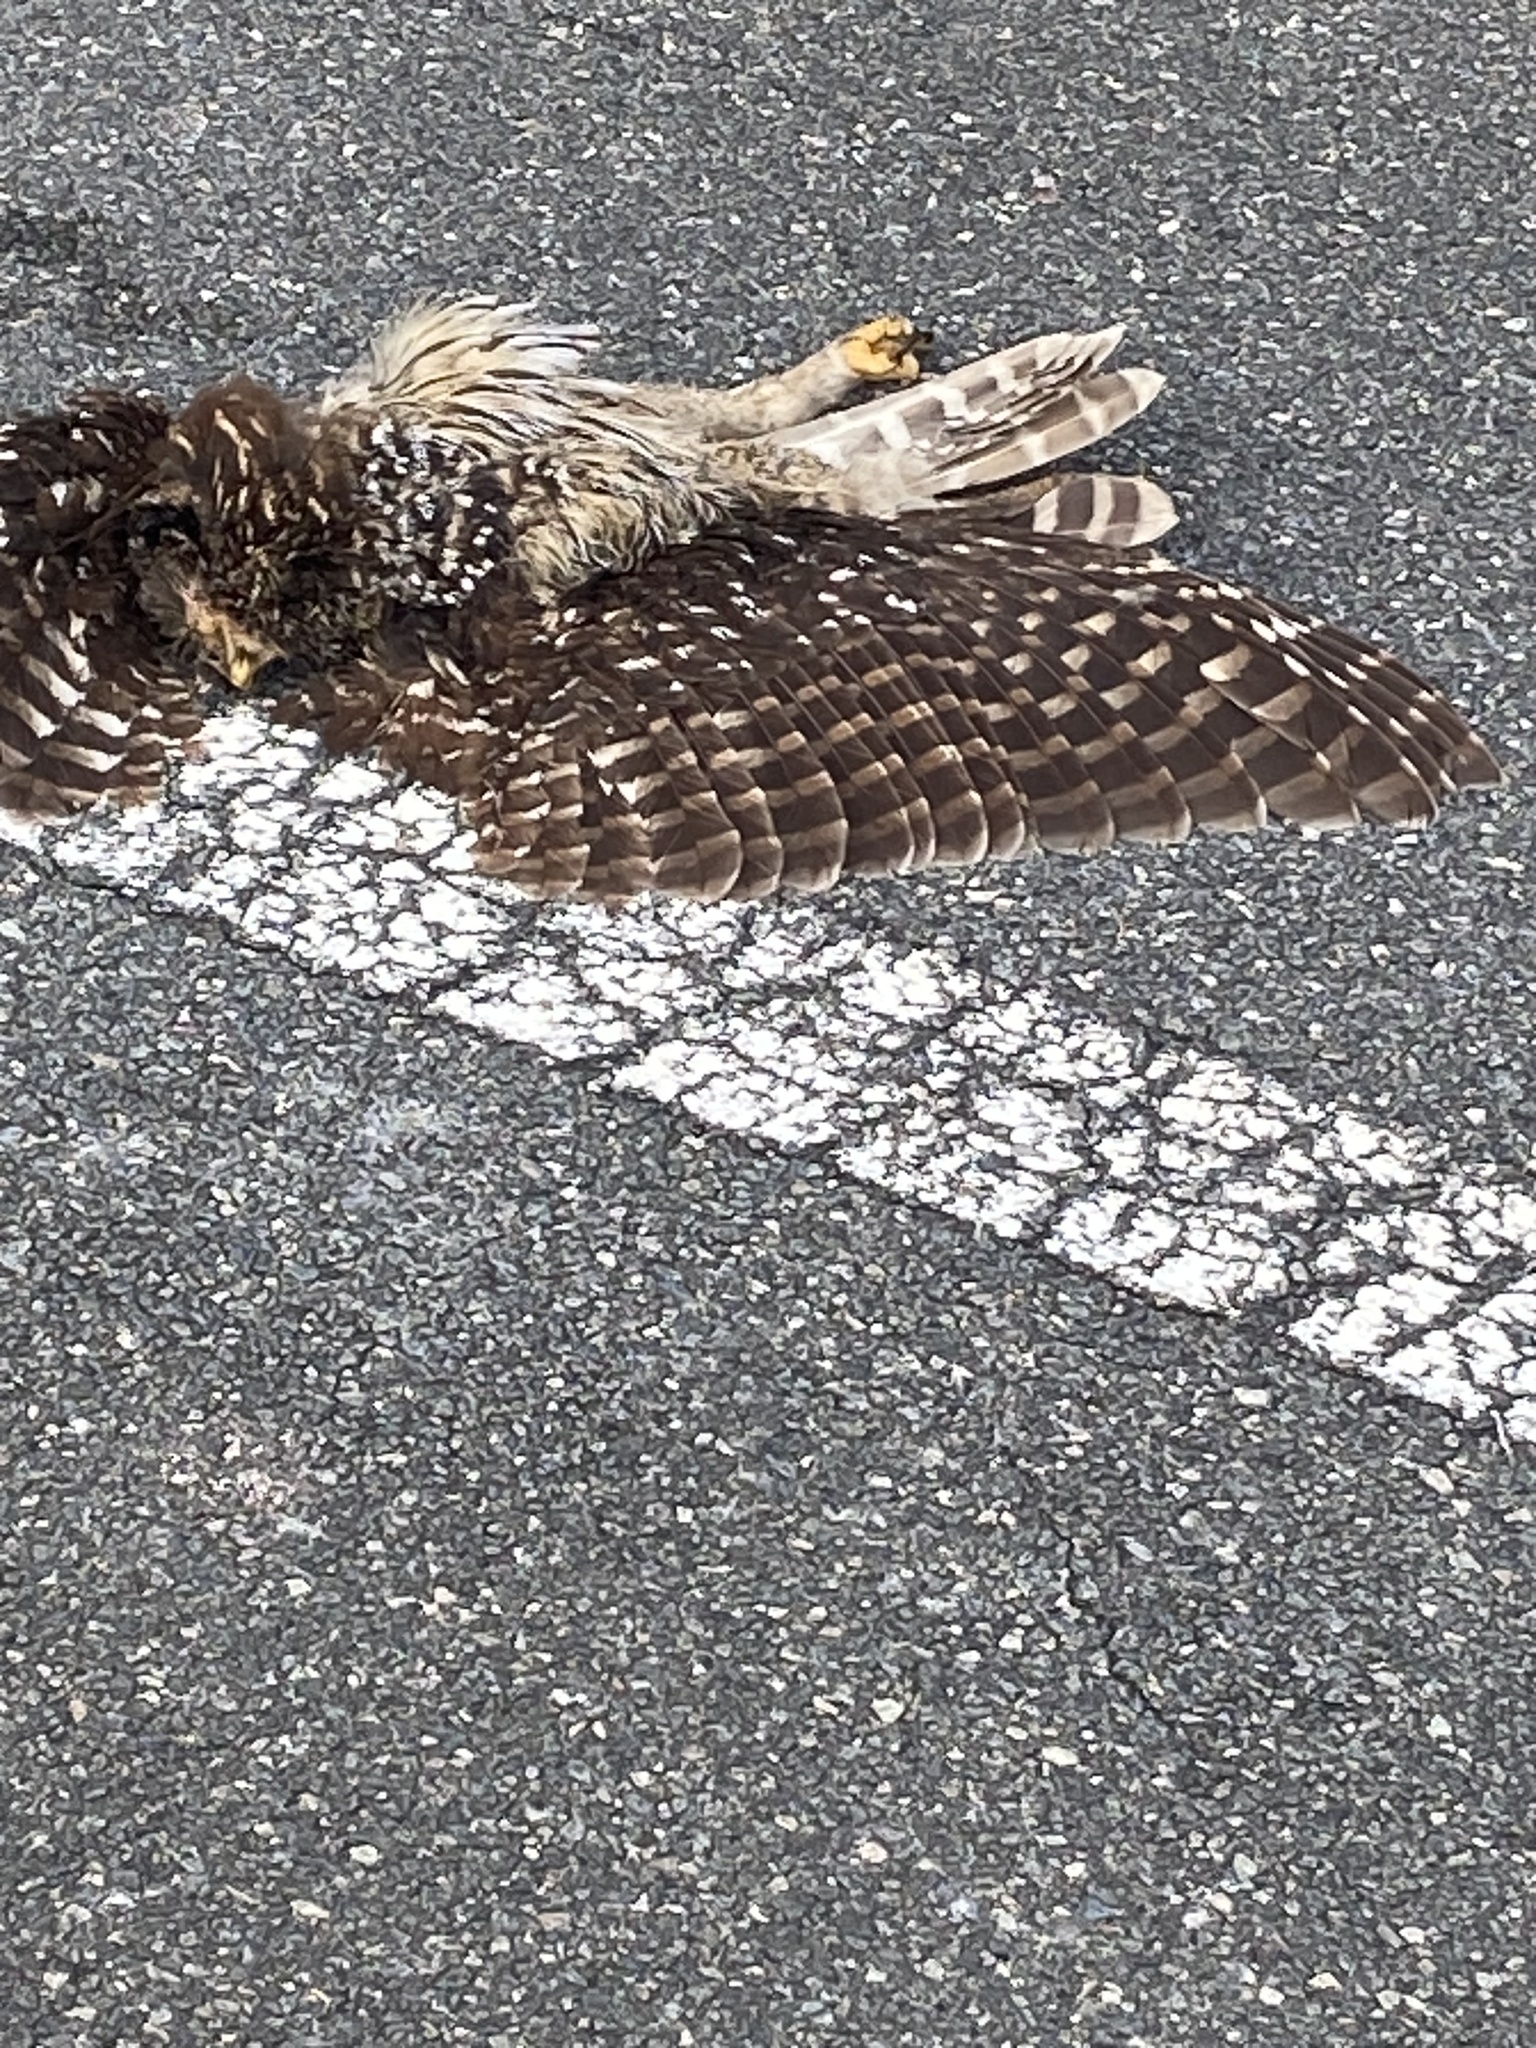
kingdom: Animalia
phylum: Chordata
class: Aves
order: Strigiformes
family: Strigidae
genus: Strix
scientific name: Strix varia
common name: Barred owl
